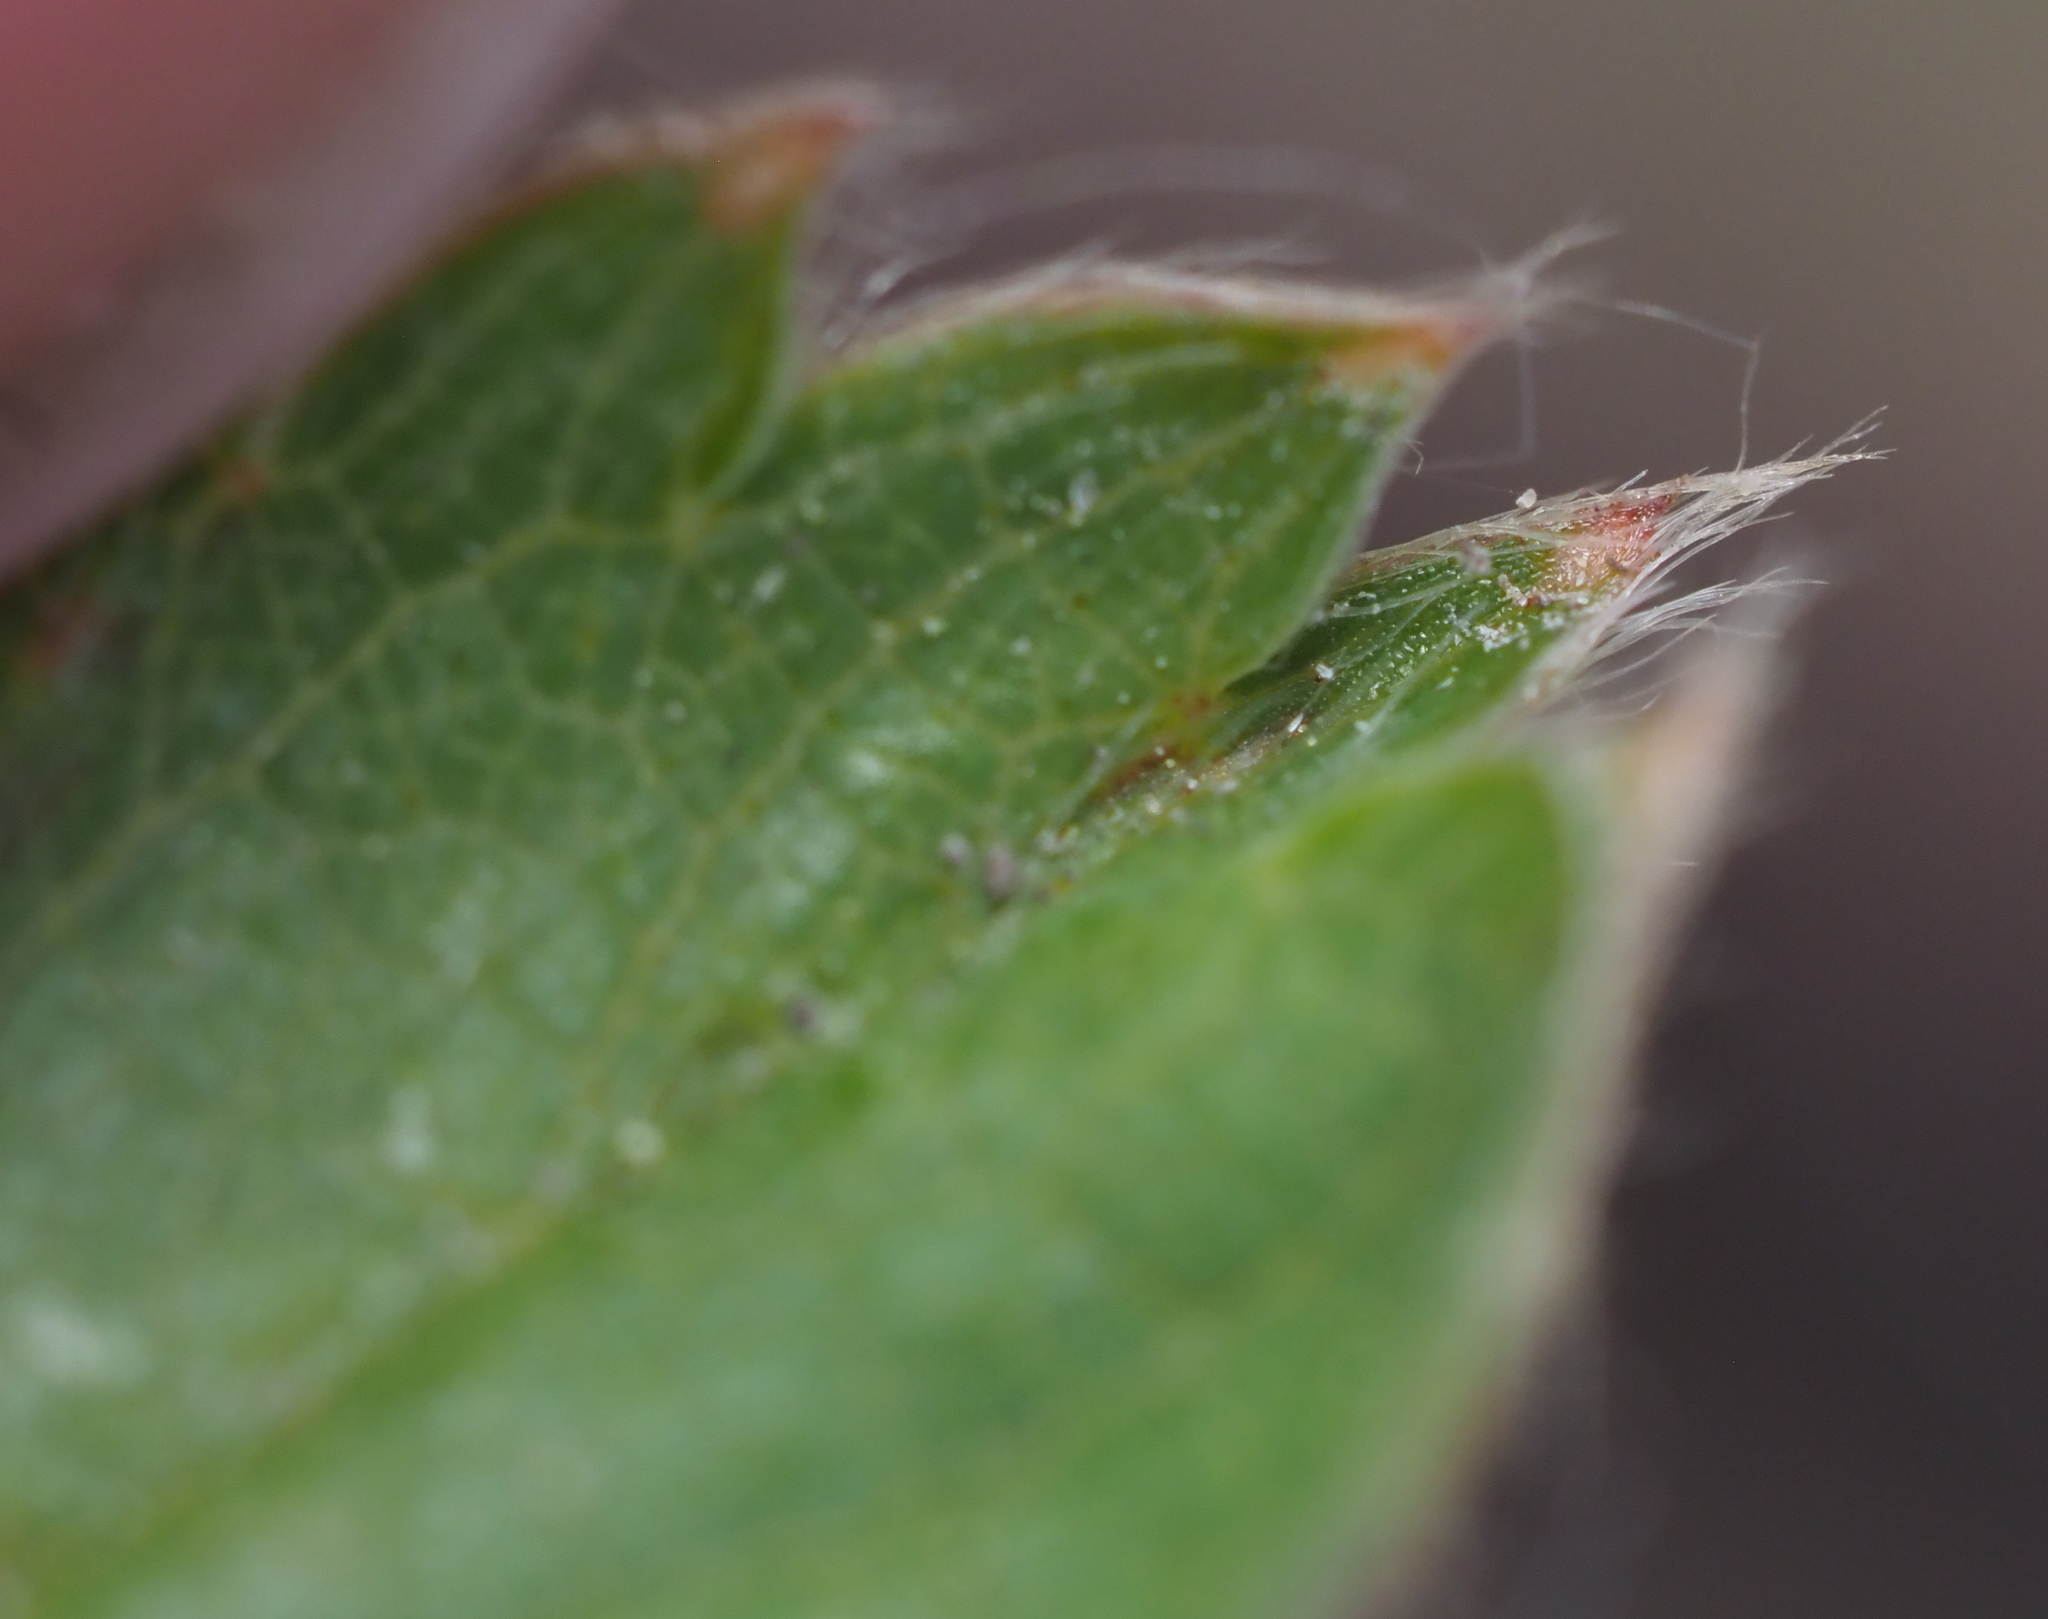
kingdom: Plantae
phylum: Tracheophyta
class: Magnoliopsida
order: Rosales
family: Rosaceae
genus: Fragaria
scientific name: Fragaria vesca
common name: Wild strawberry
